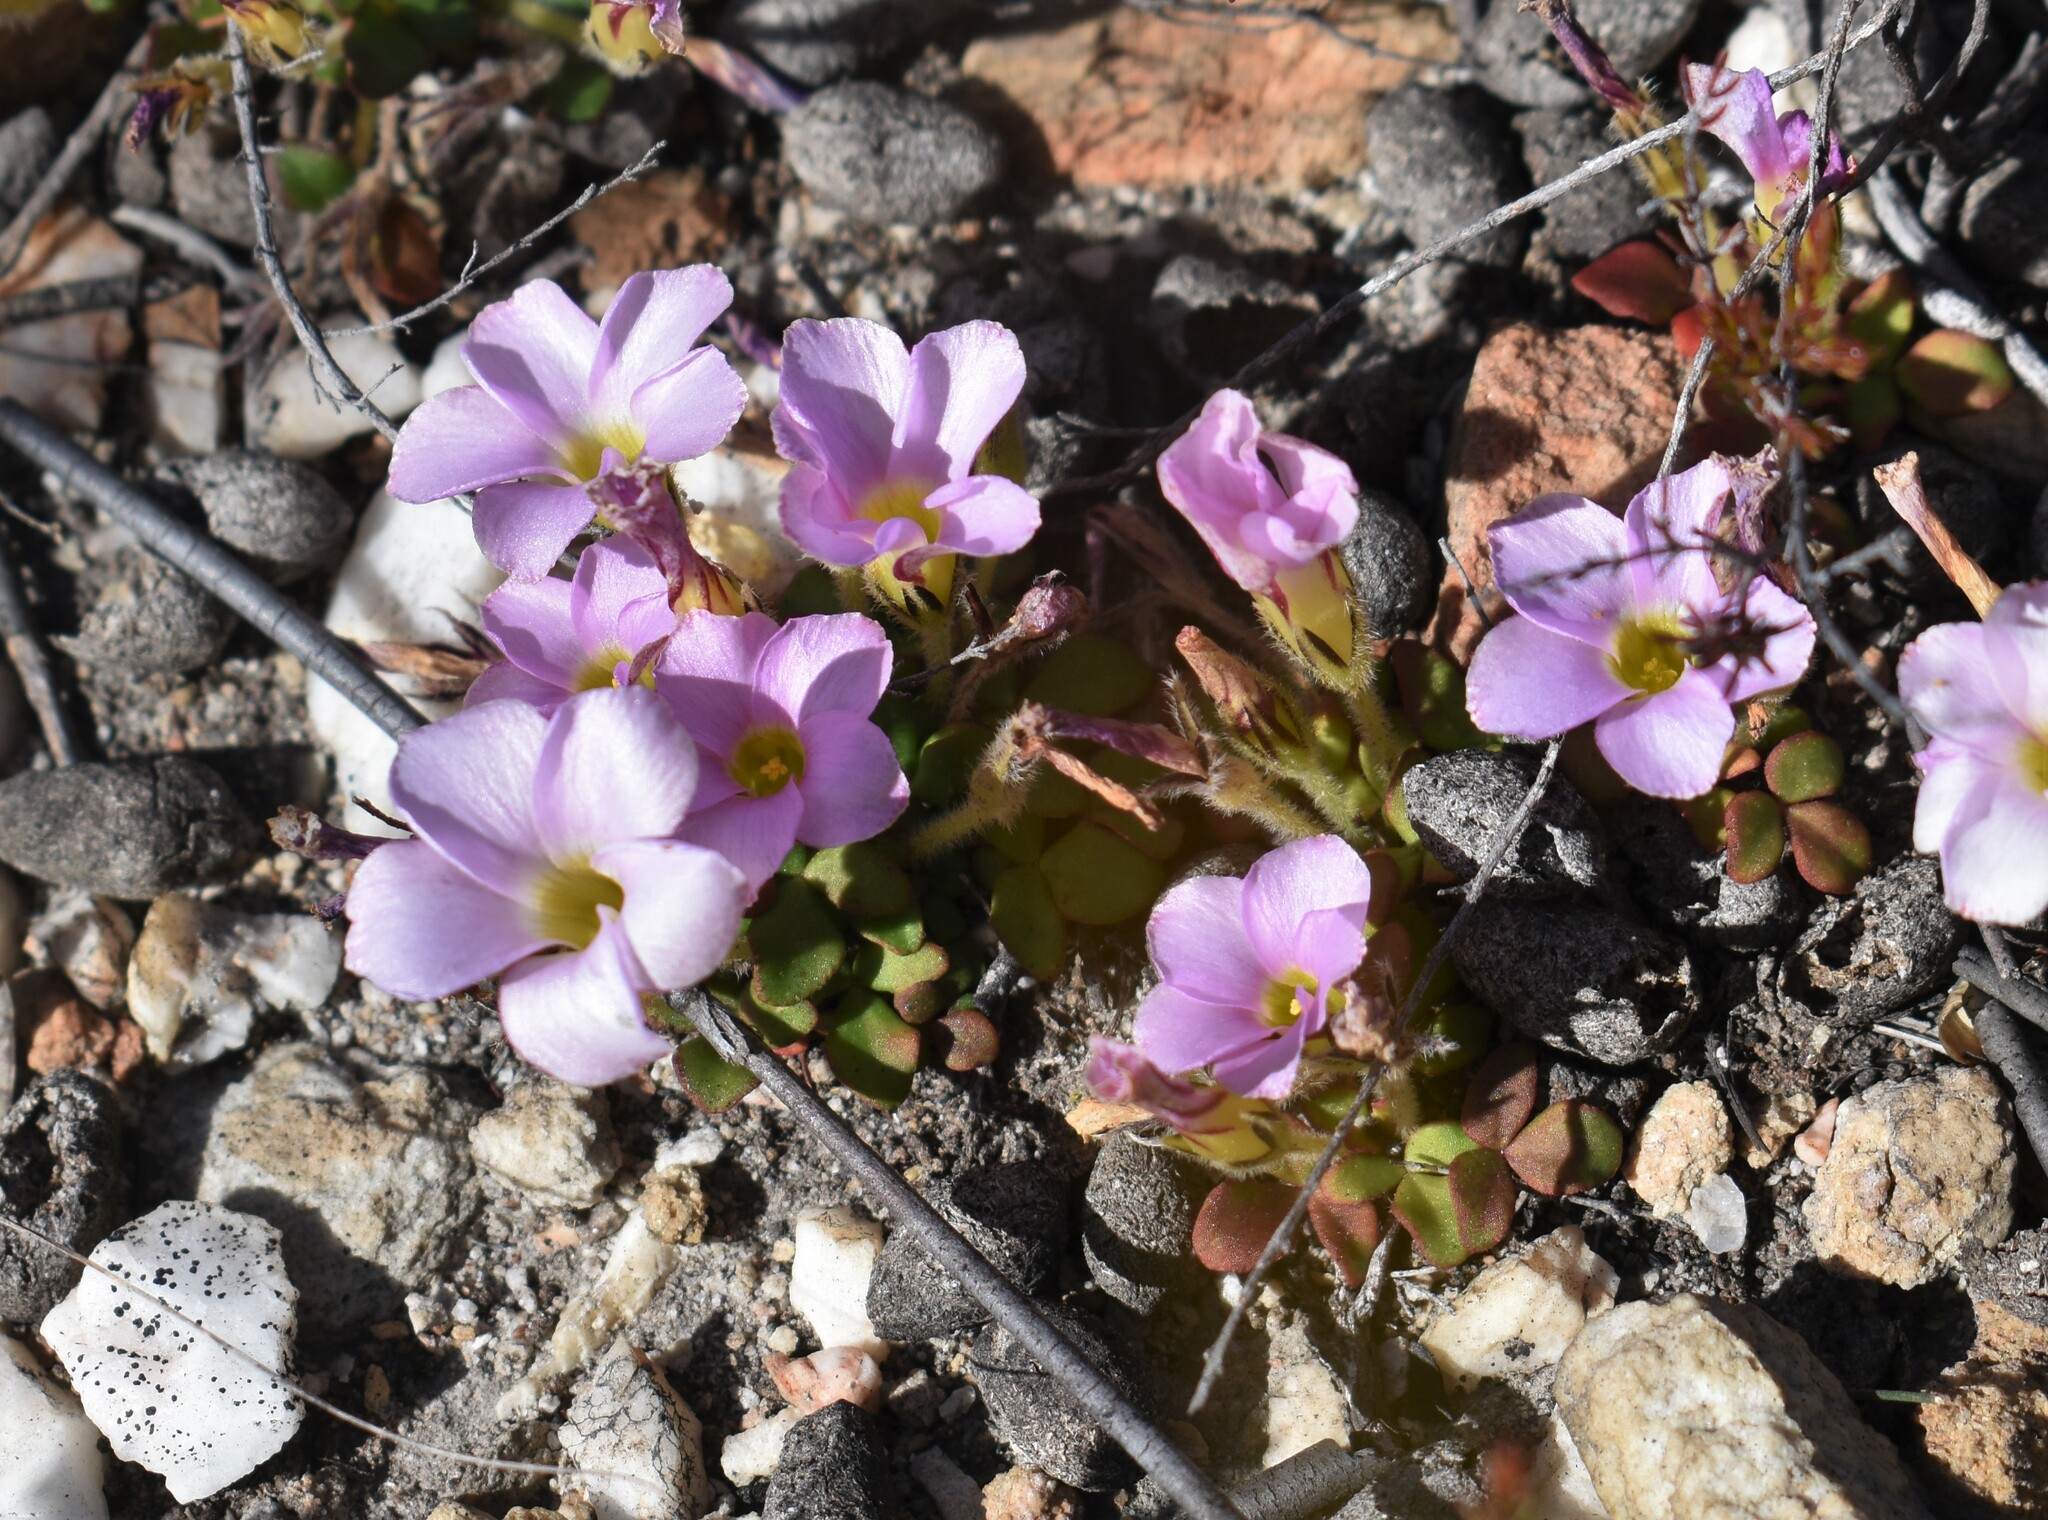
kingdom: Plantae
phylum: Tracheophyta
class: Magnoliopsida
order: Oxalidales
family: Oxalidaceae
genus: Oxalis
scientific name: Oxalis algoensis
